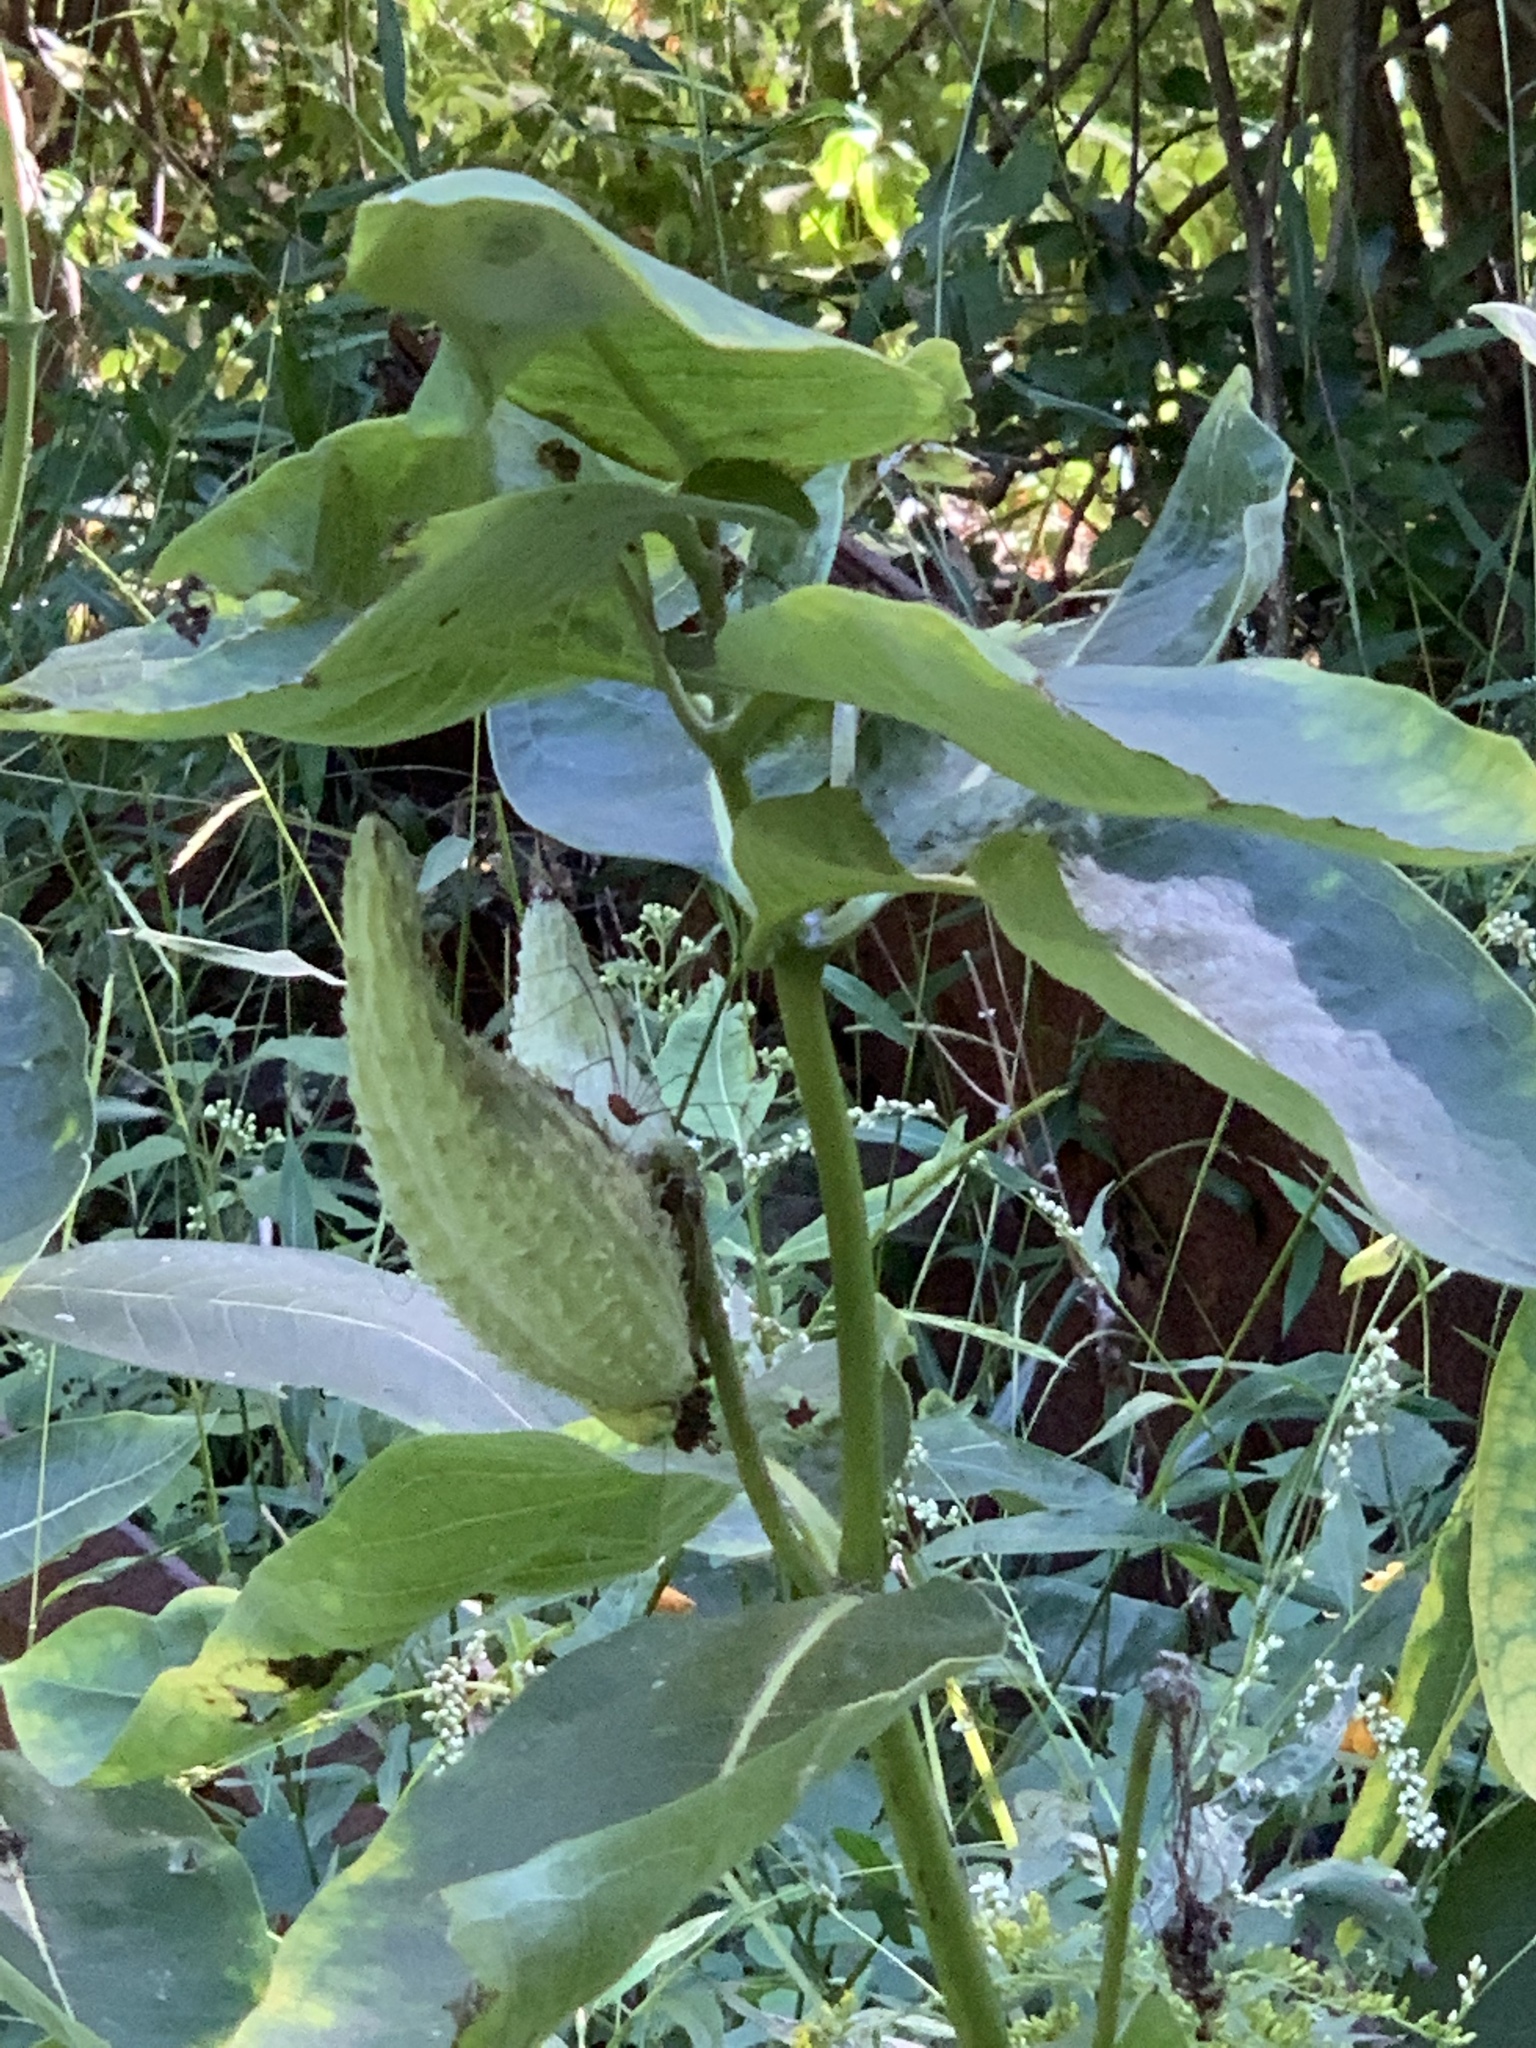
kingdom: Plantae
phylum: Tracheophyta
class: Magnoliopsida
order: Gentianales
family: Apocynaceae
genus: Asclepias
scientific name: Asclepias syriaca
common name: Common milkweed
